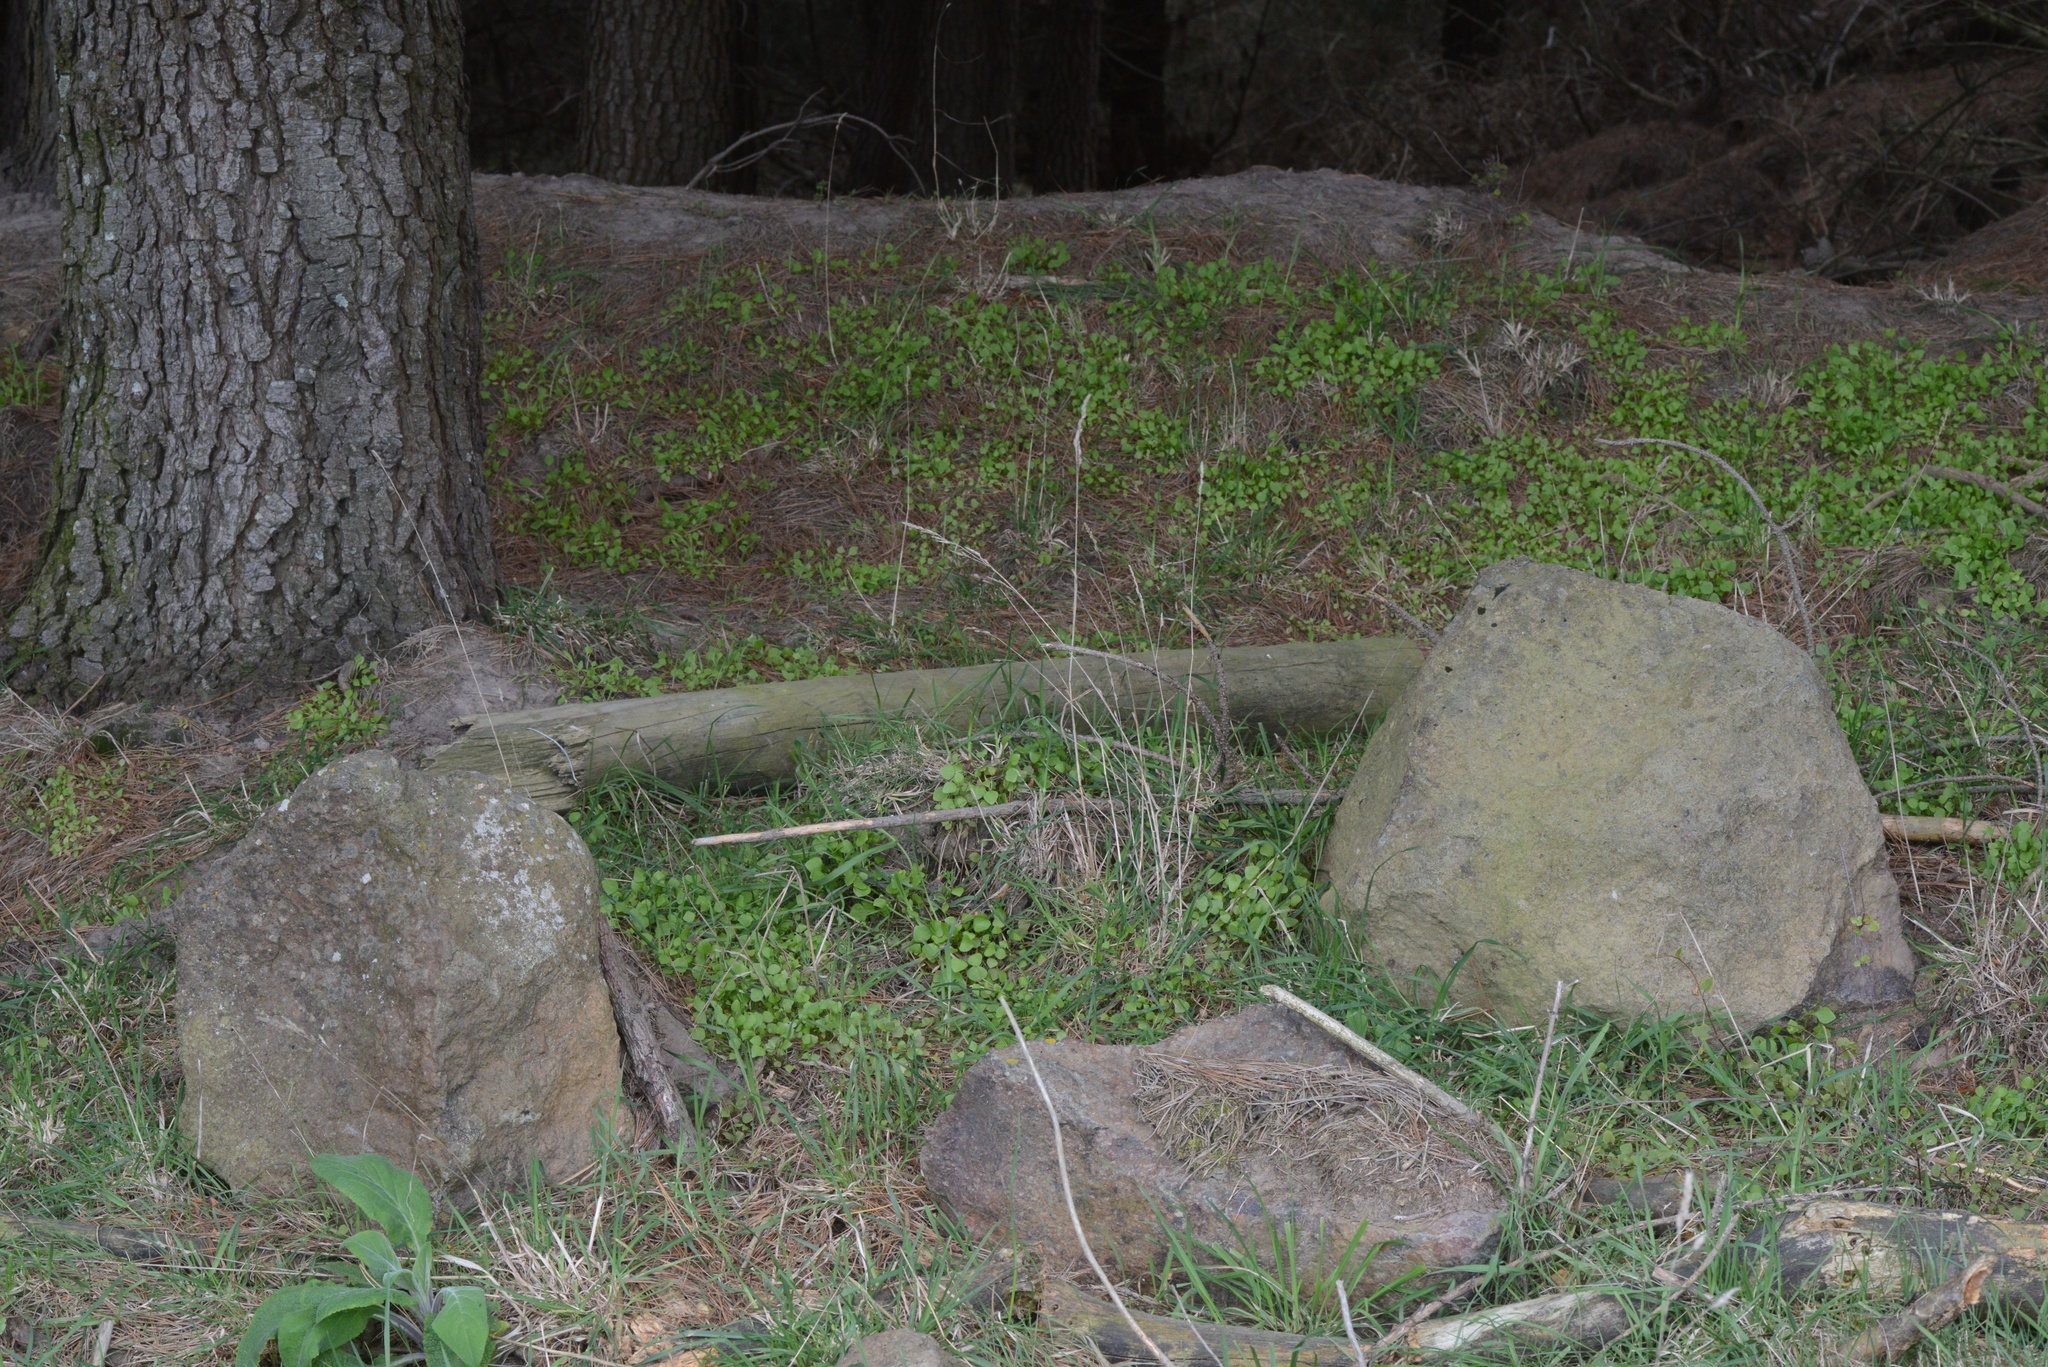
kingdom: Plantae
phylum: Tracheophyta
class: Magnoliopsida
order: Caryophyllales
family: Montiaceae
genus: Claytonia
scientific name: Claytonia perfoliata
